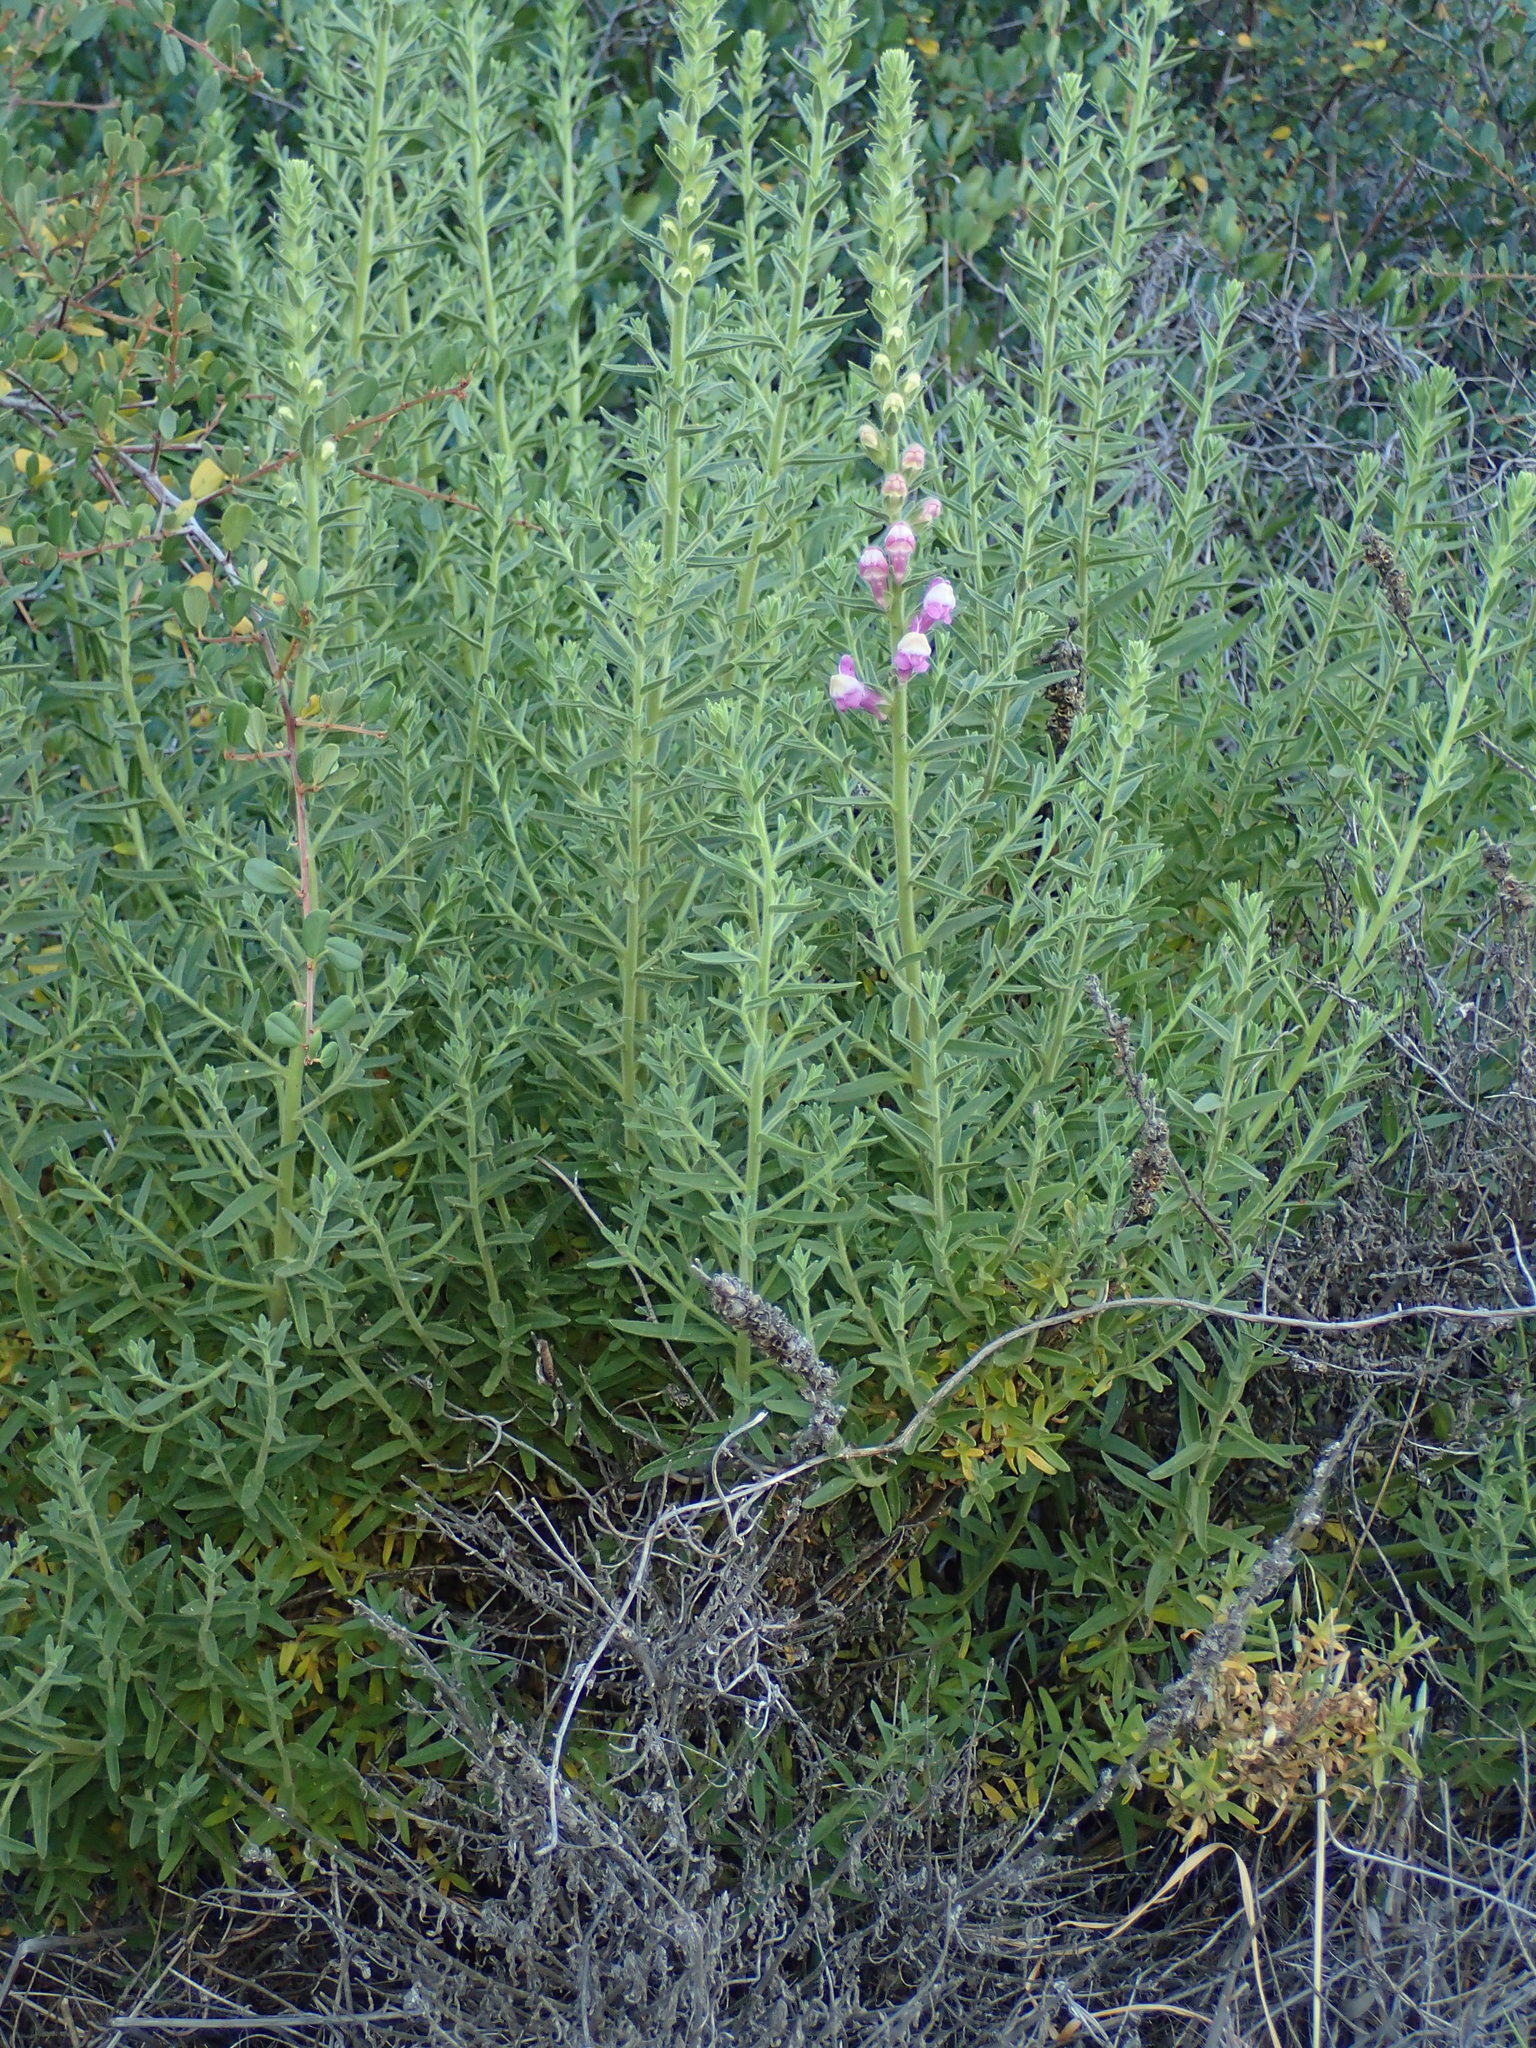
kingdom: Plantae
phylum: Tracheophyta
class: Magnoliopsida
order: Lamiales
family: Plantaginaceae
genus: Sairocarpus
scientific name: Sairocarpus multiflorus
